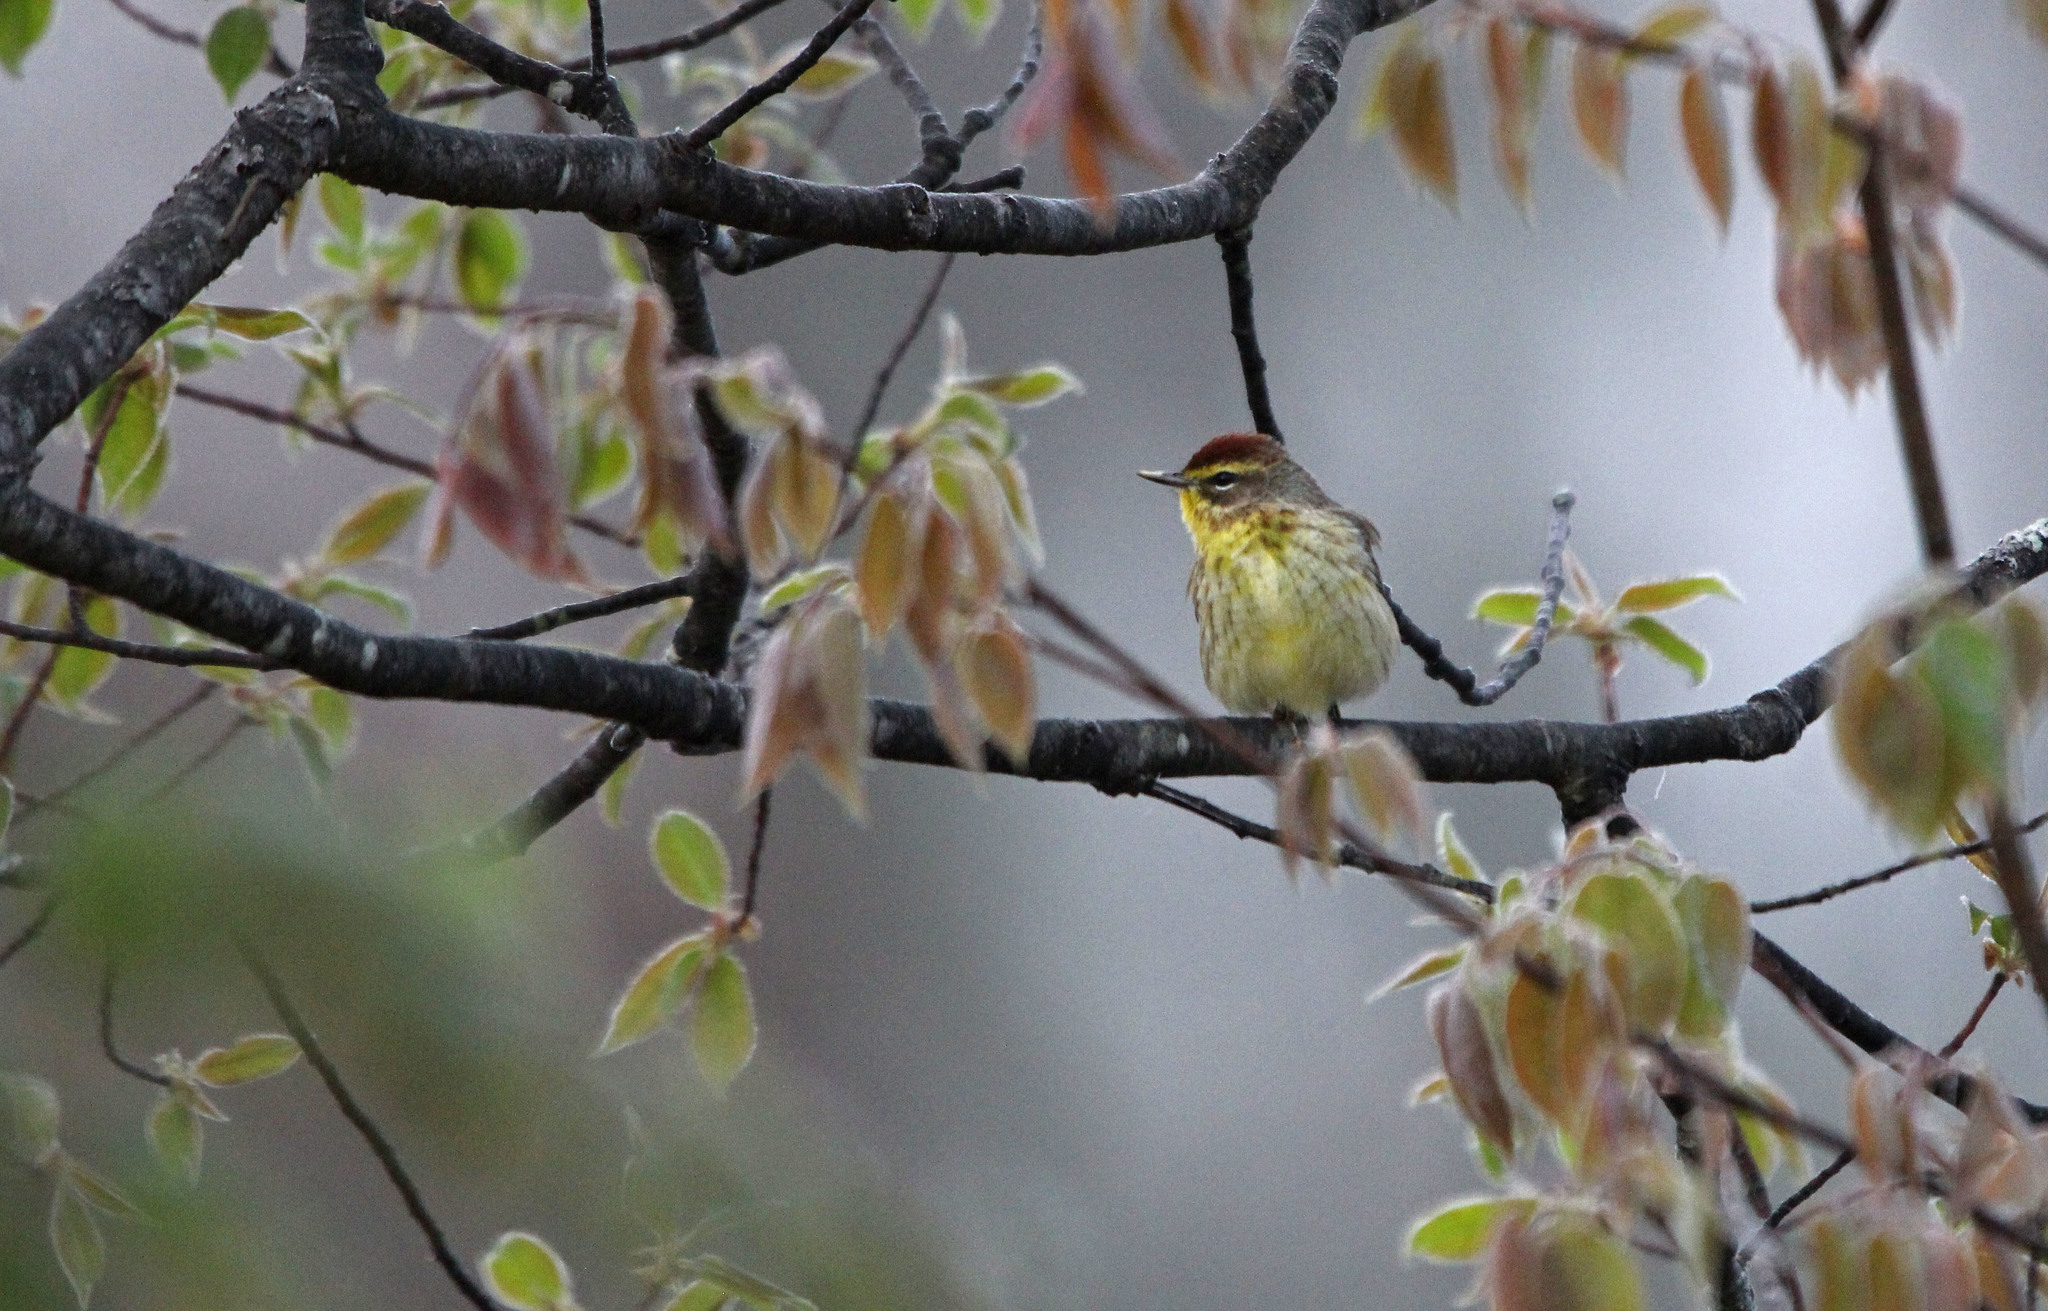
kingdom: Animalia
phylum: Chordata
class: Aves
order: Passeriformes
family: Parulidae
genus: Setophaga
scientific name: Setophaga palmarum
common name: Palm warbler
